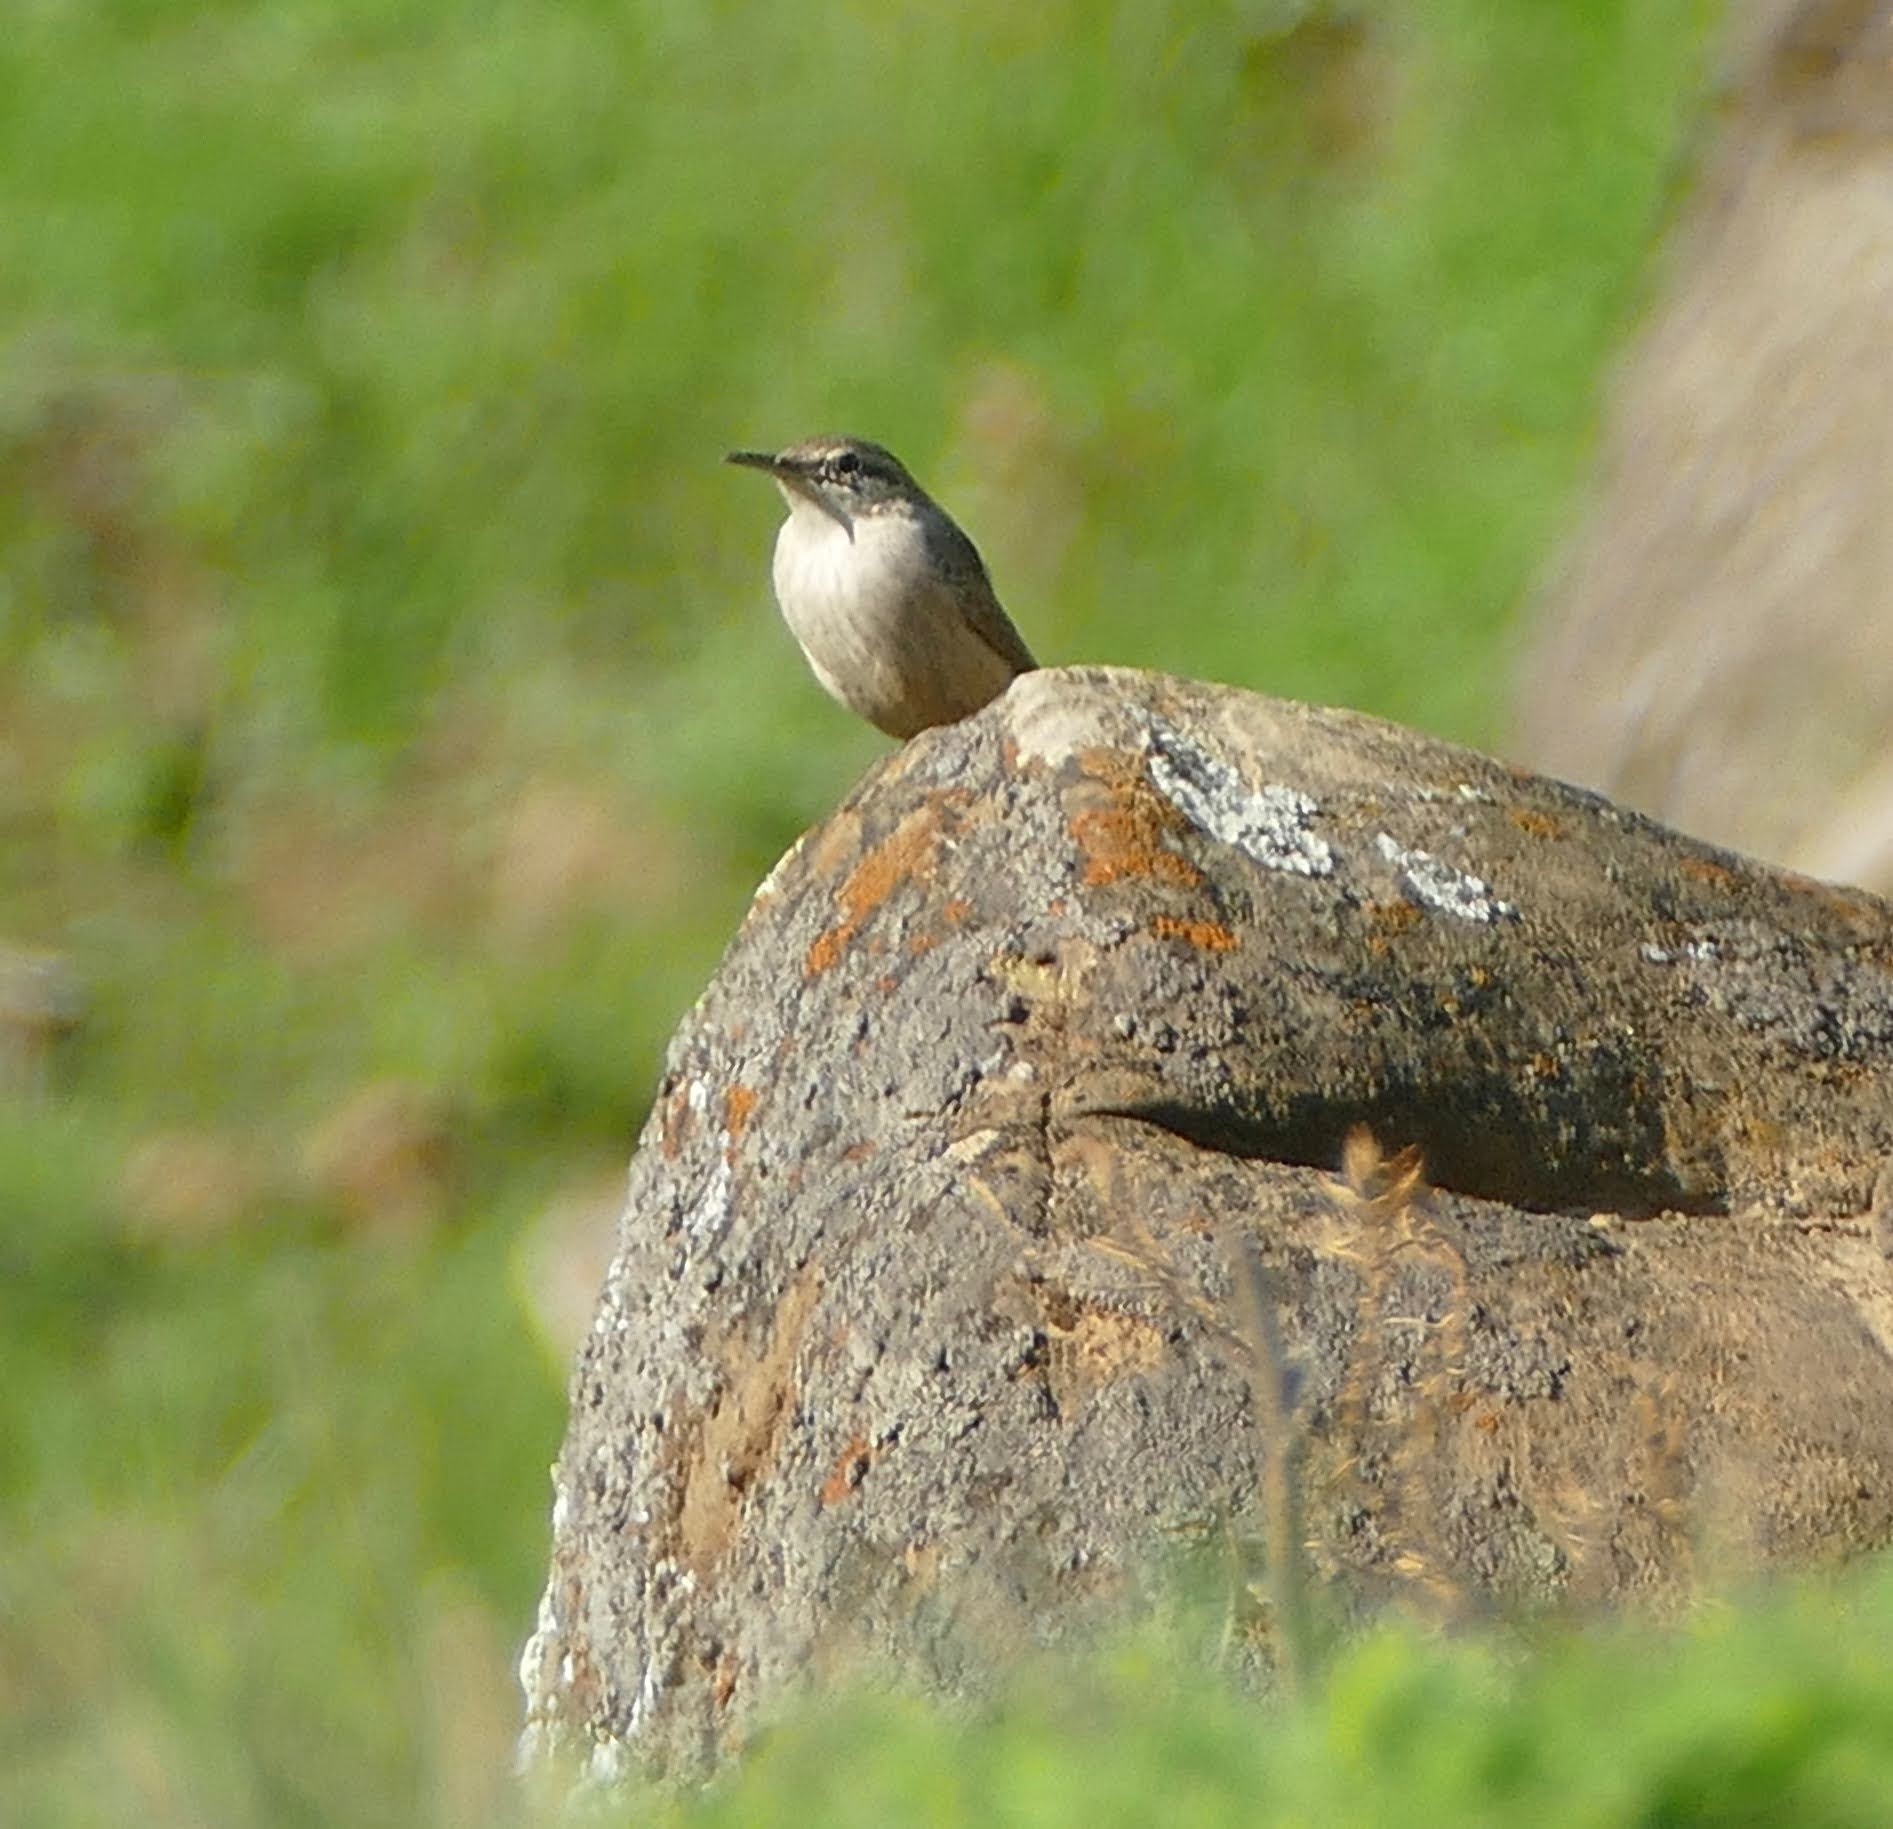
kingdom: Animalia
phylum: Chordata
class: Aves
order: Passeriformes
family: Troglodytidae
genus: Salpinctes
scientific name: Salpinctes obsoletus
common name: Rock wren
